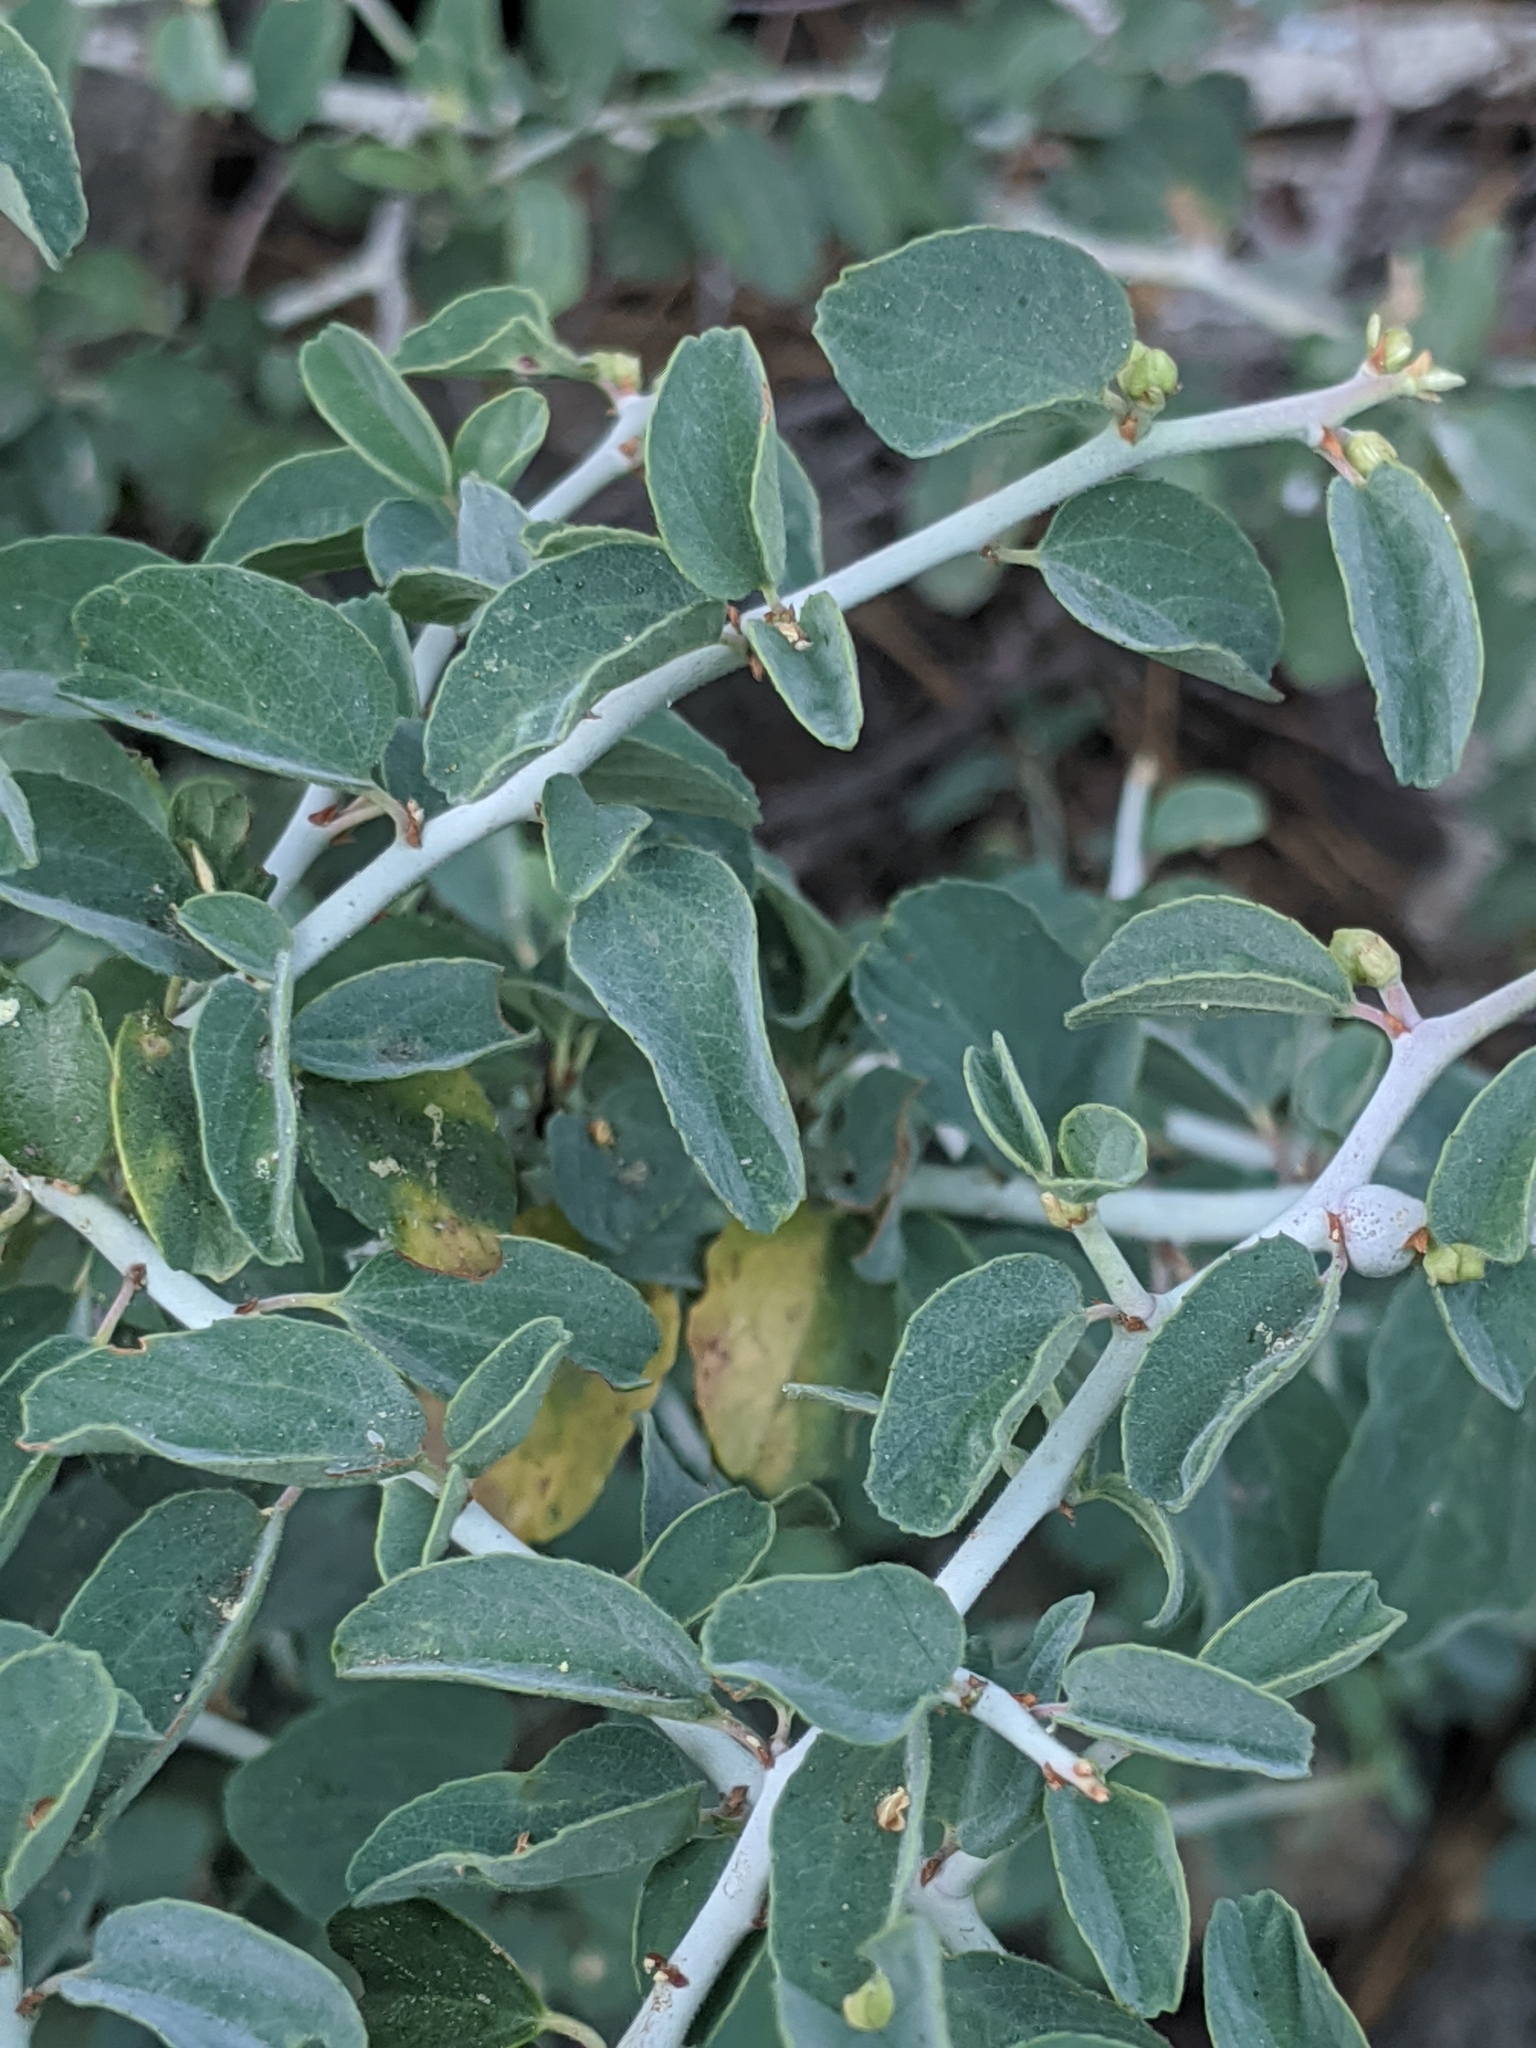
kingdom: Plantae
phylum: Tracheophyta
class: Magnoliopsida
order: Rosales
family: Rhamnaceae
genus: Ceanothus
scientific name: Ceanothus cordulatus
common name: Mountain whitethorn
